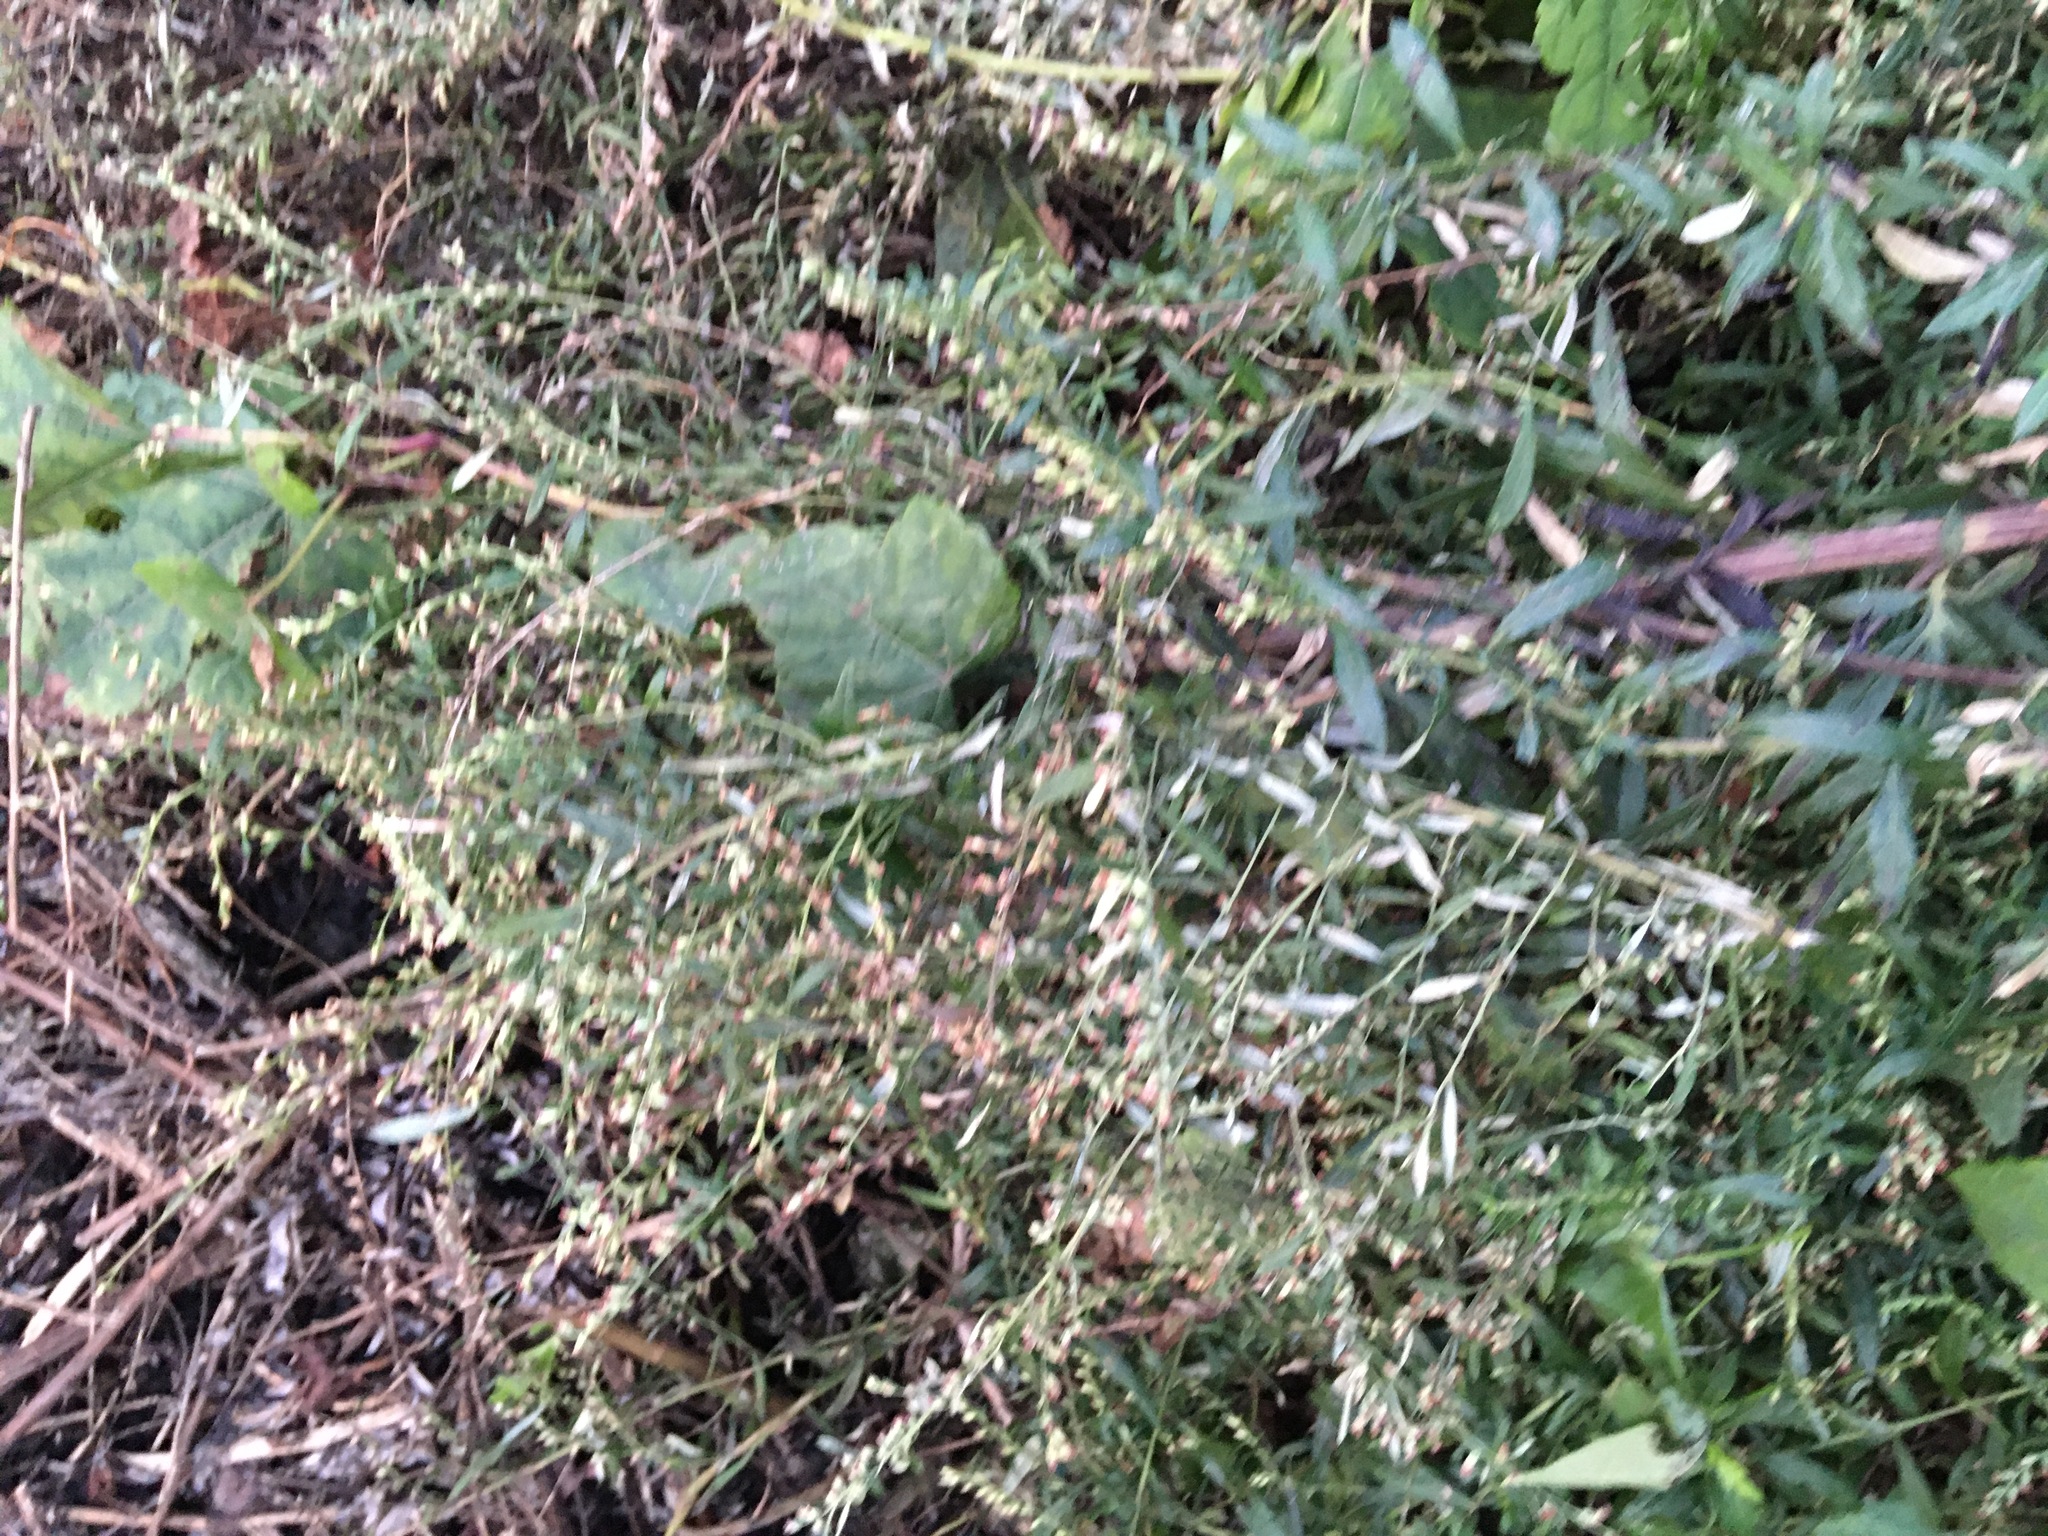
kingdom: Plantae
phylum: Tracheophyta
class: Magnoliopsida
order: Asterales
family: Asteraceae
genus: Artemisia
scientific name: Artemisia vulgaris
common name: Mugwort
